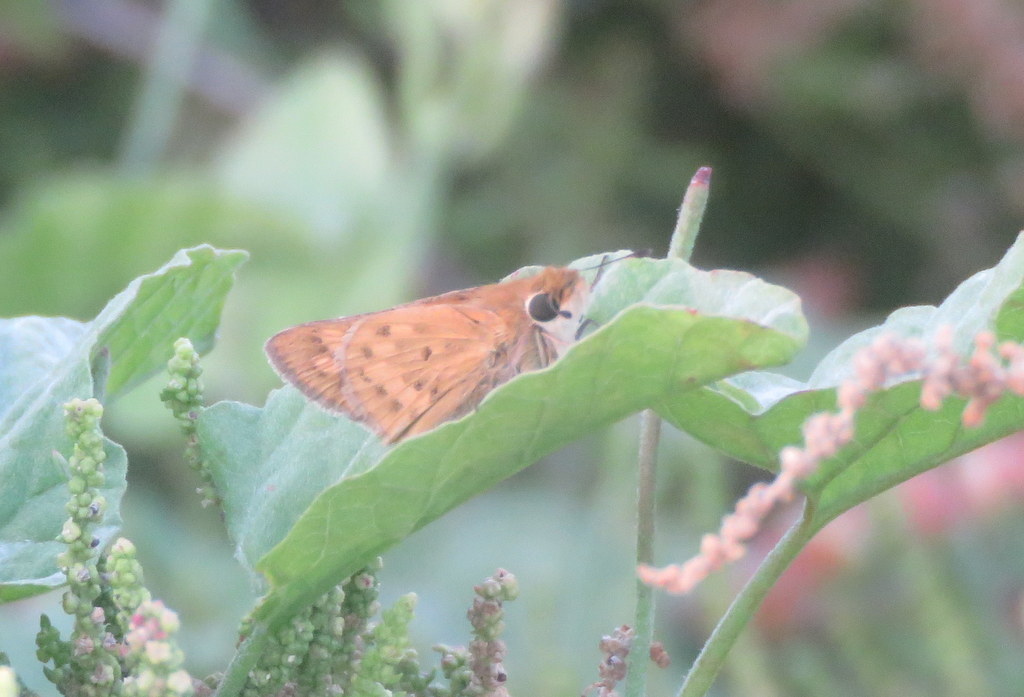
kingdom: Animalia
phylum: Arthropoda
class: Insecta
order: Lepidoptera
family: Hesperiidae
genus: Hylephila
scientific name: Hylephila phyleus
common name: Fiery skipper
